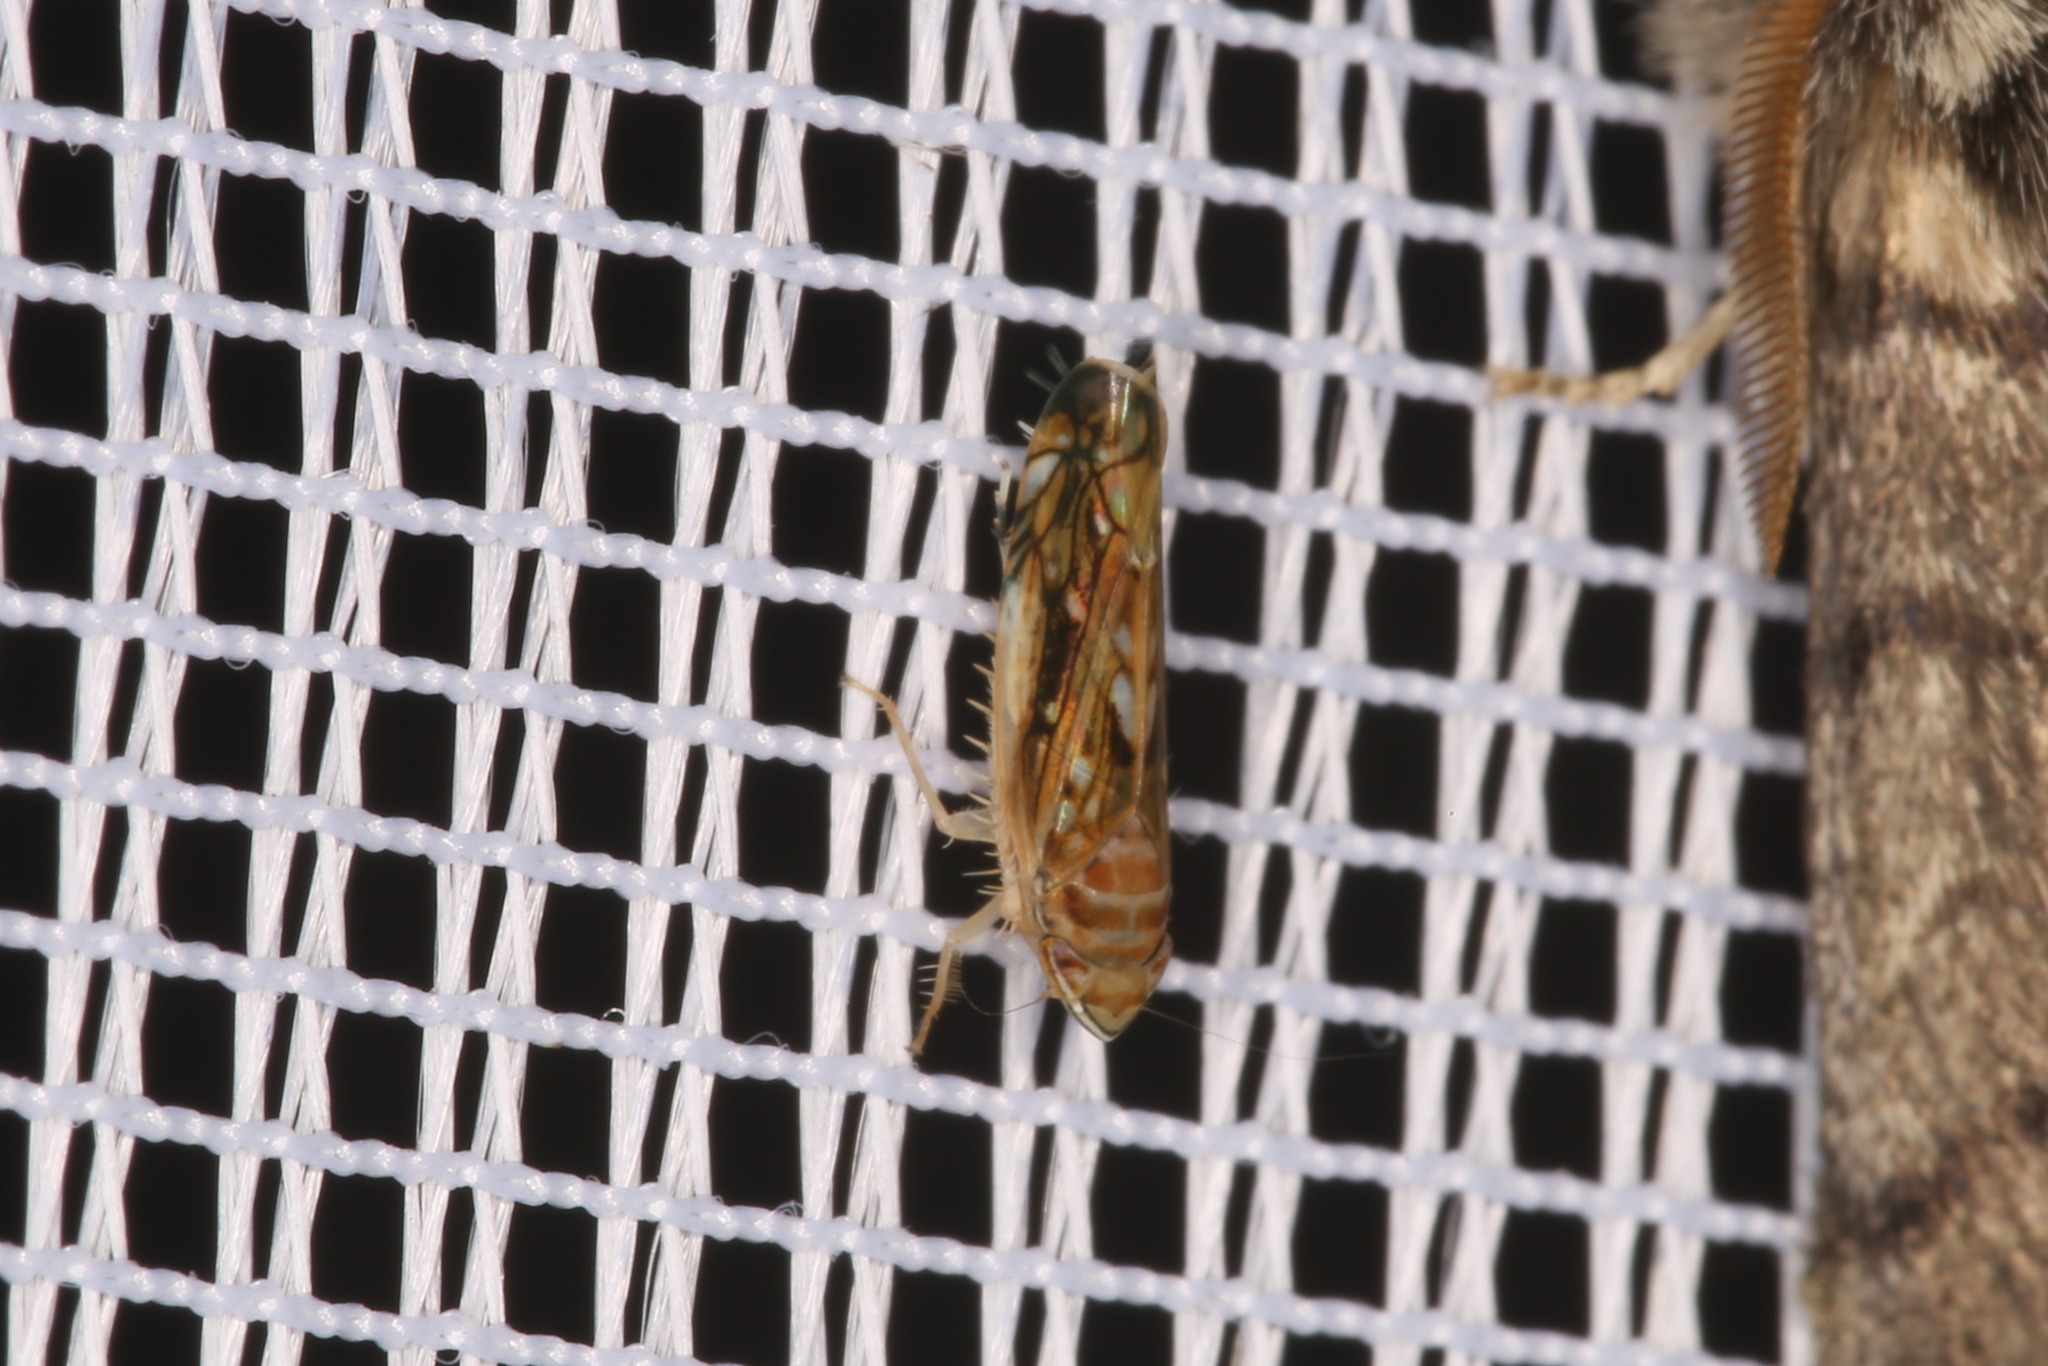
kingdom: Animalia
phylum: Arthropoda
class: Insecta
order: Hemiptera
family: Cicadellidae
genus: Scaphoideus
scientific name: Scaphoideus titanus
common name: American grapevine leafhopper
